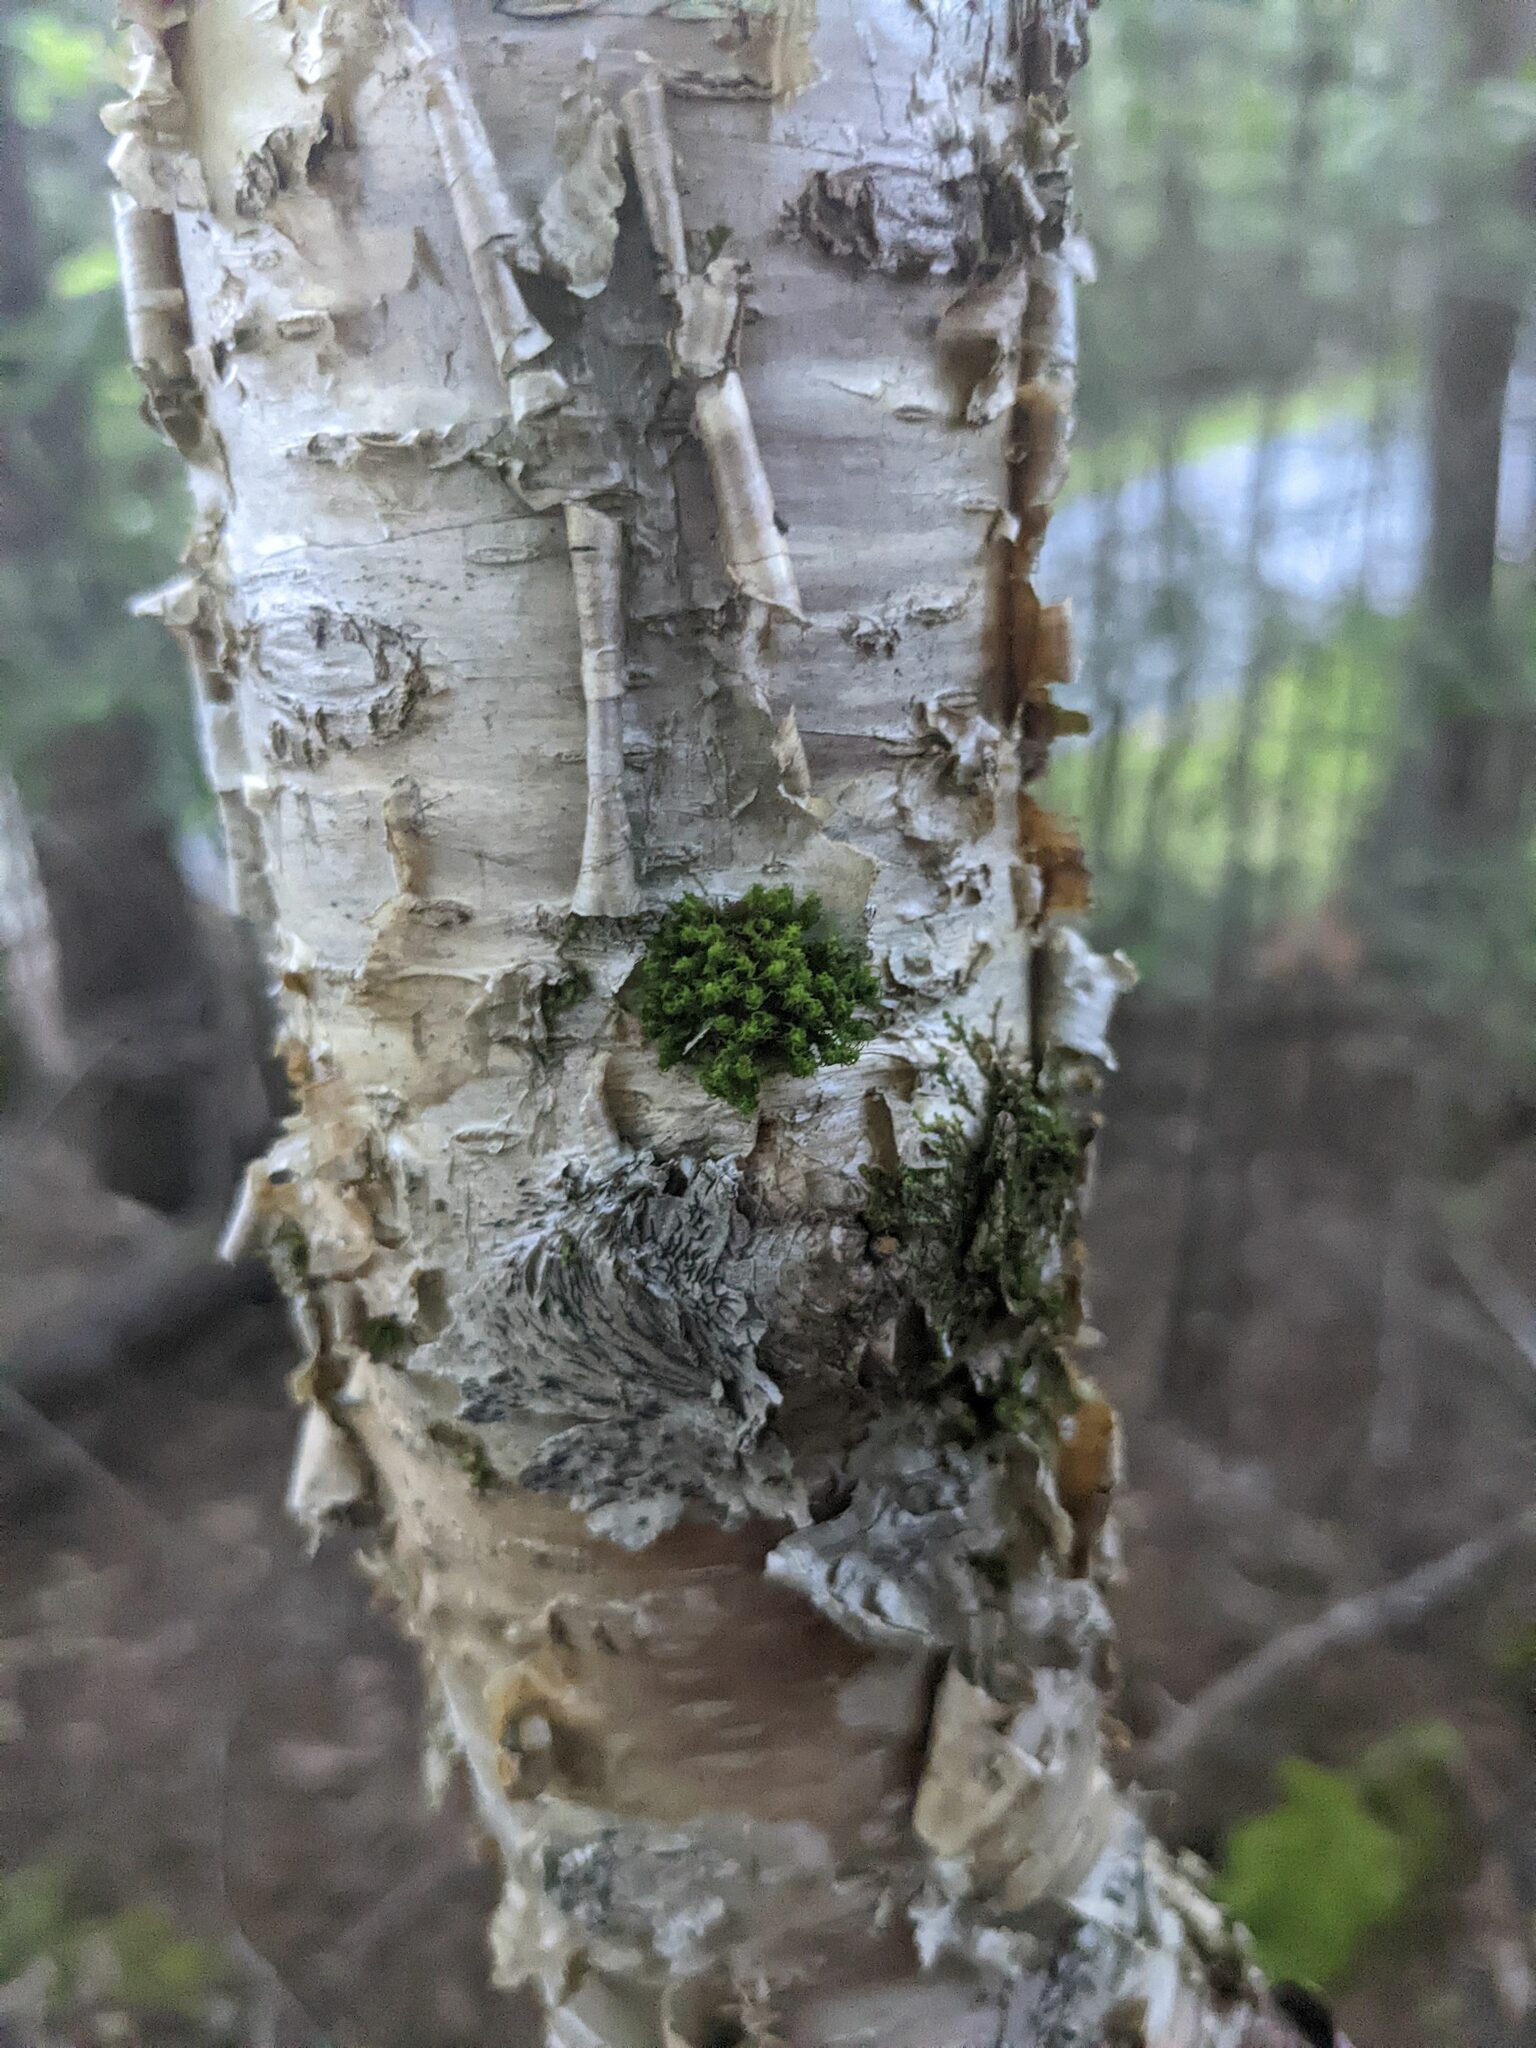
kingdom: Plantae
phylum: Bryophyta
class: Bryopsida
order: Orthotrichales
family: Orthotrichaceae
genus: Ulota
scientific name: Ulota crispa
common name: Crisped pincushion moss
